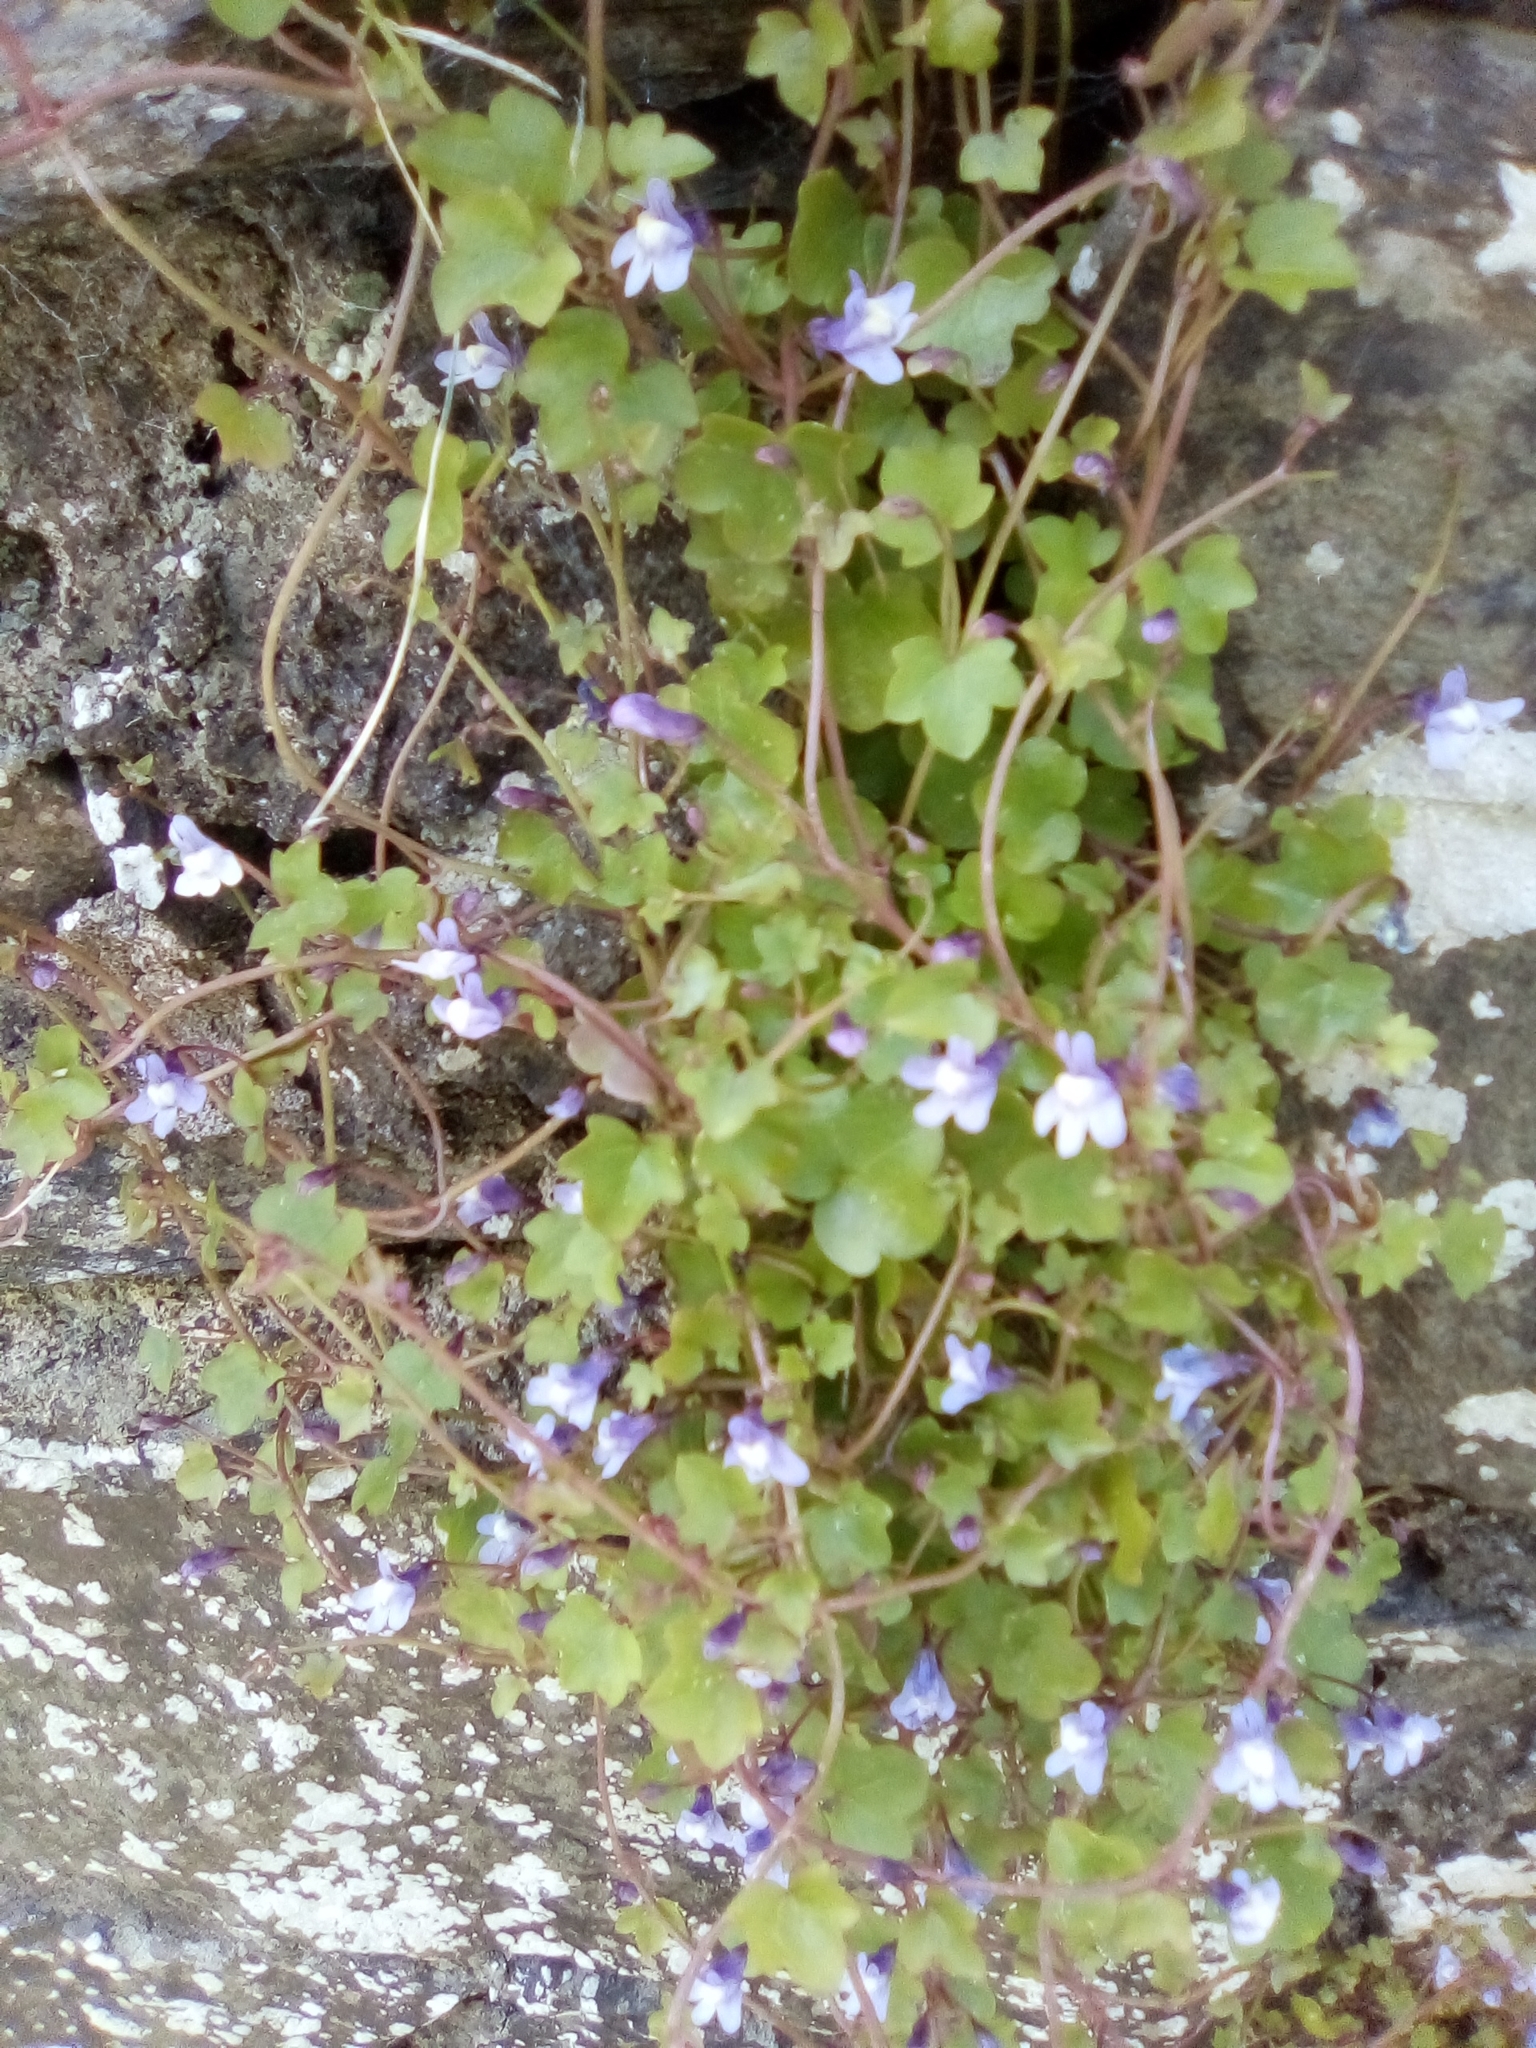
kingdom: Plantae
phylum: Tracheophyta
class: Magnoliopsida
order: Lamiales
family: Plantaginaceae
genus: Cymbalaria
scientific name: Cymbalaria muralis
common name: Ivy-leaved toadflax
